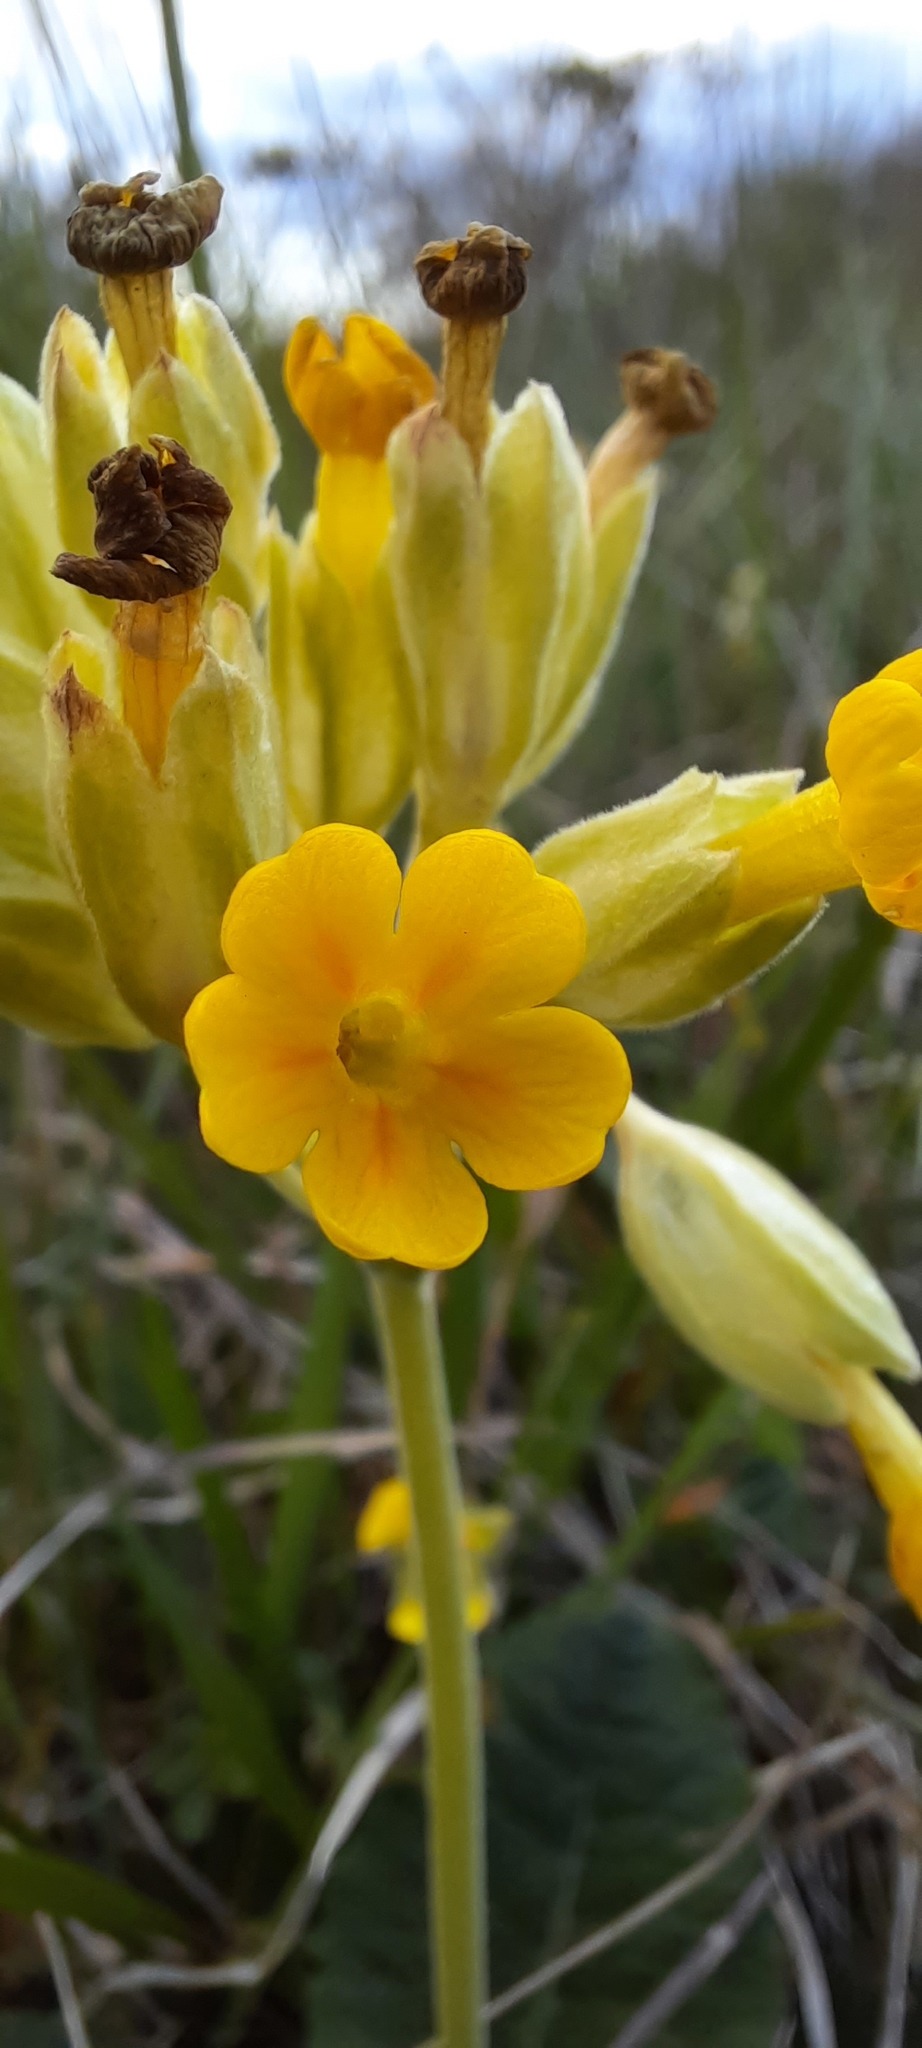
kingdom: Plantae
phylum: Tracheophyta
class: Magnoliopsida
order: Ericales
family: Primulaceae
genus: Primula
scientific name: Primula veris
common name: Cowslip
